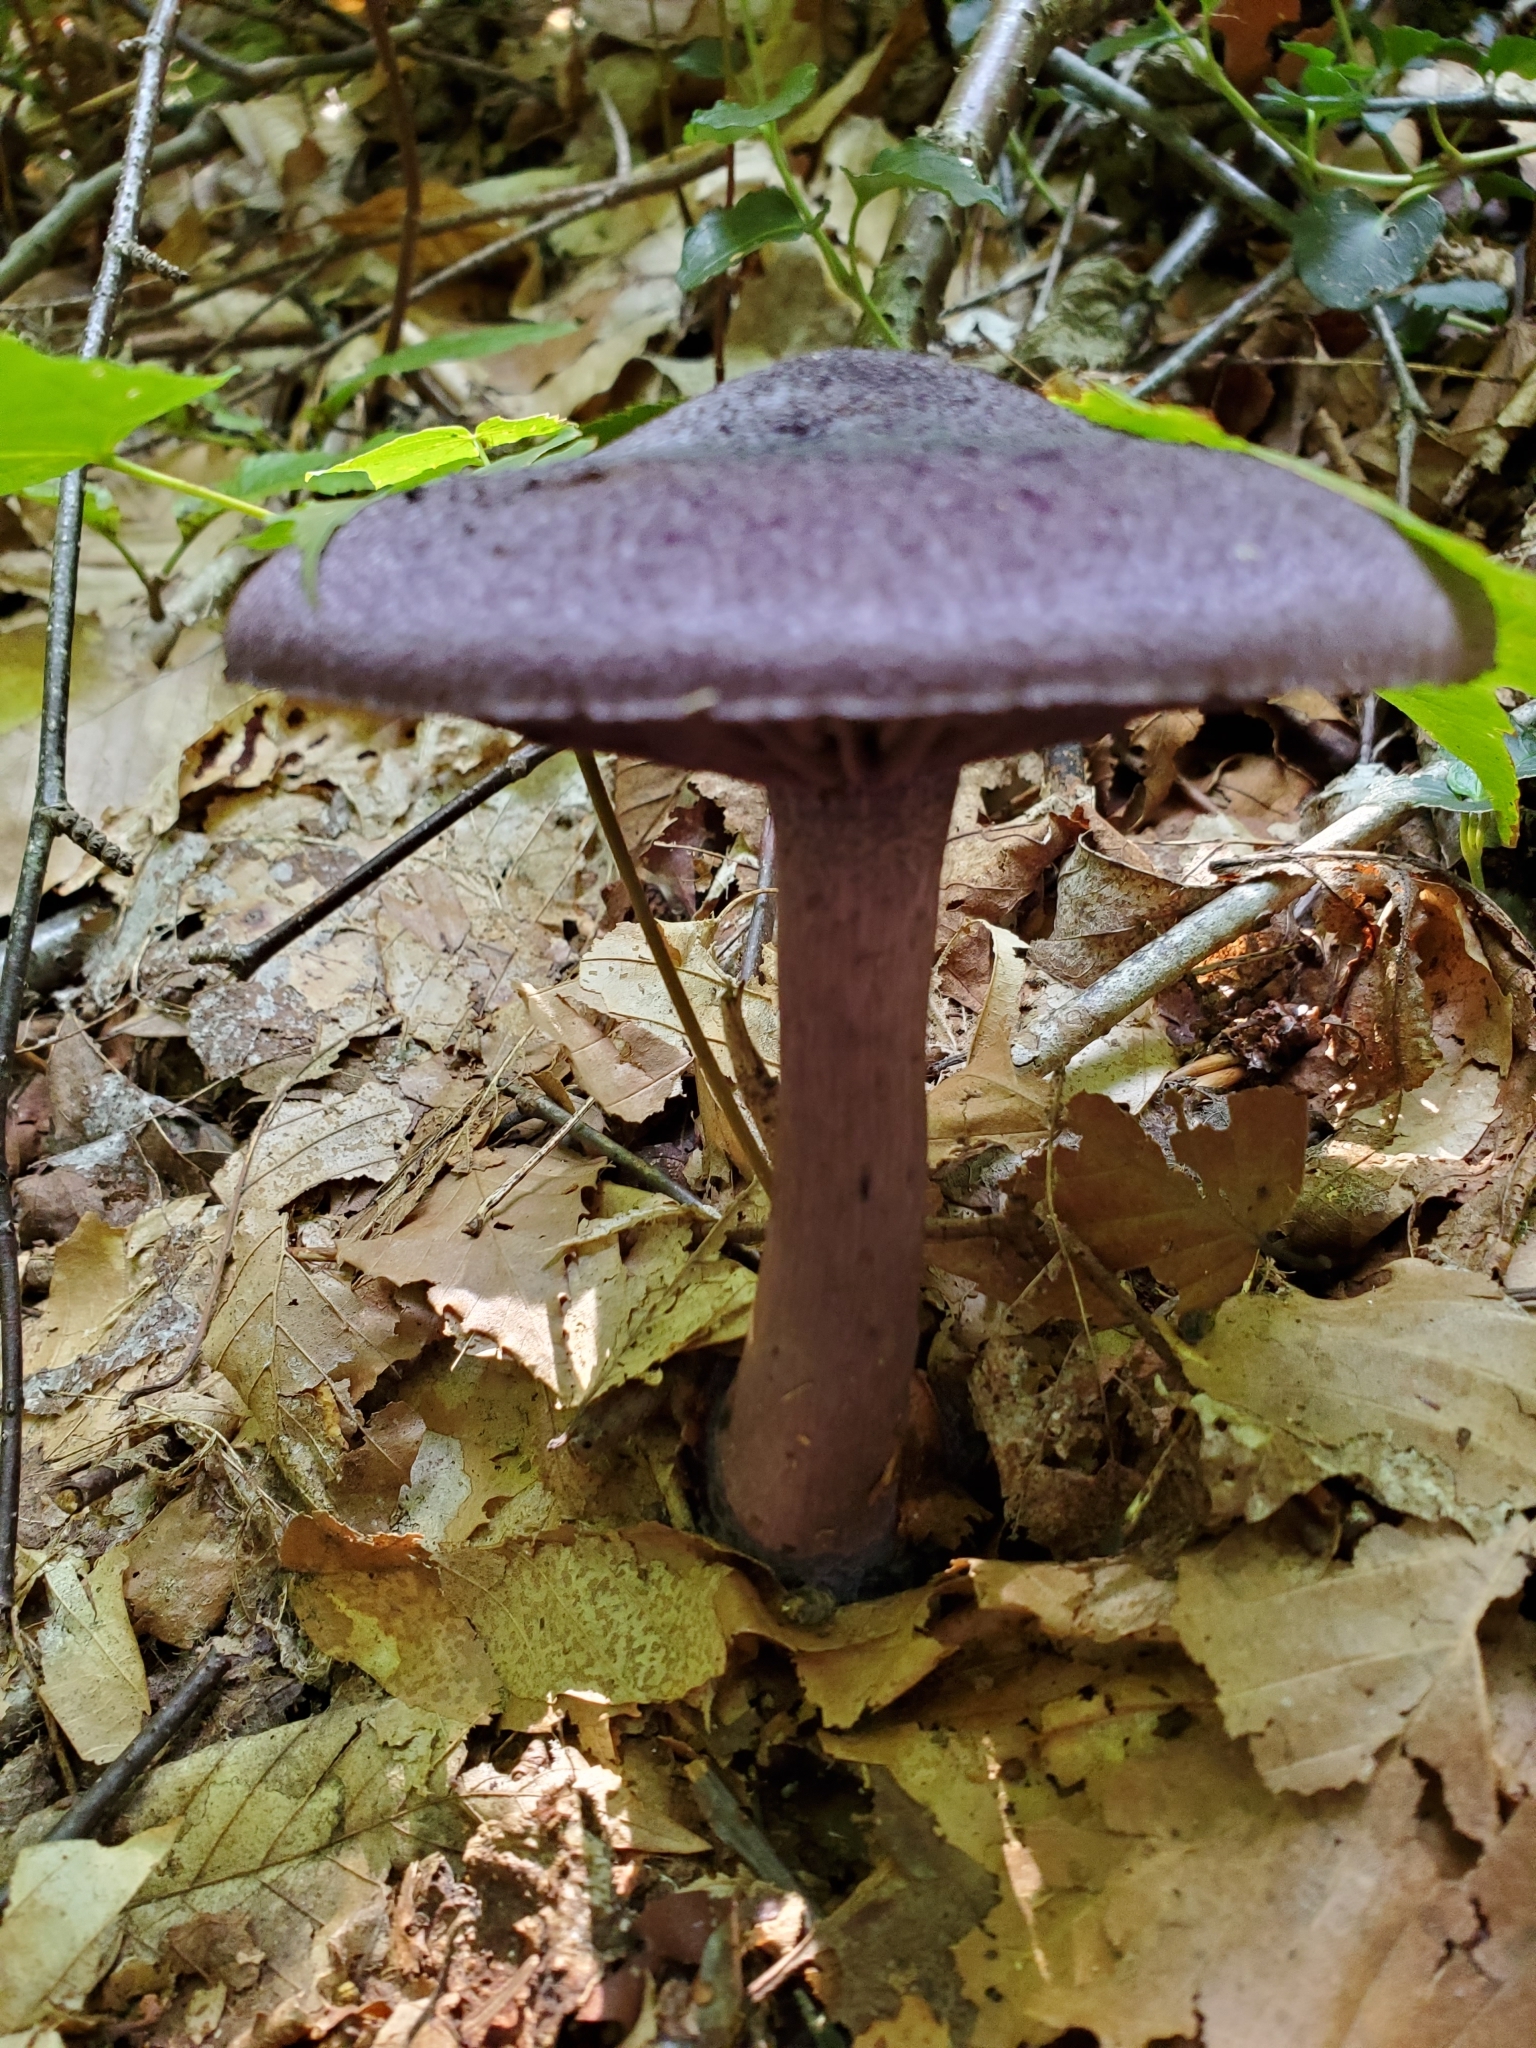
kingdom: Fungi
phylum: Basidiomycota
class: Agaricomycetes
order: Agaricales
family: Cortinariaceae
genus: Cortinarius
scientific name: Cortinarius violaceus
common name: Violet webcap
